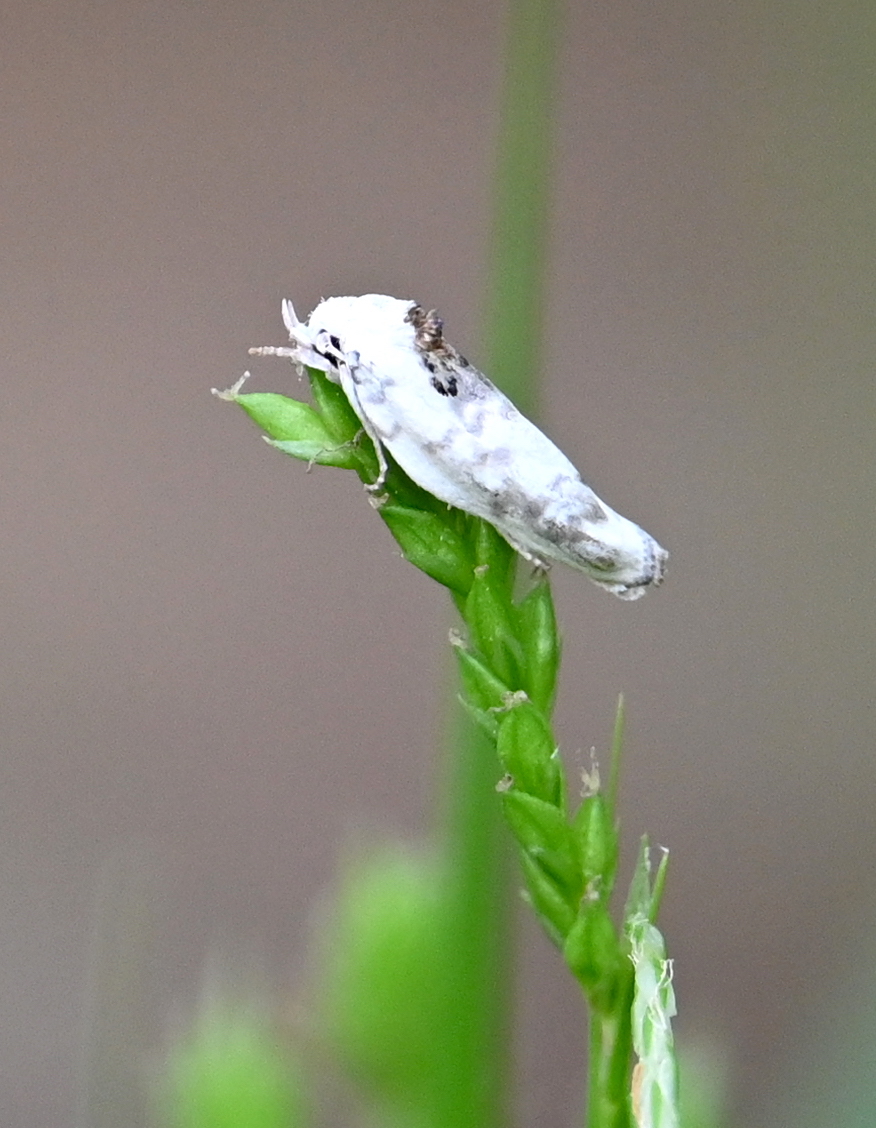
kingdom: Animalia
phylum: Arthropoda
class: Insecta
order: Lepidoptera
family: Depressariidae
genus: Antaeotricha
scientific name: Antaeotricha leucillana
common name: Pale gray bird-dropping moth
